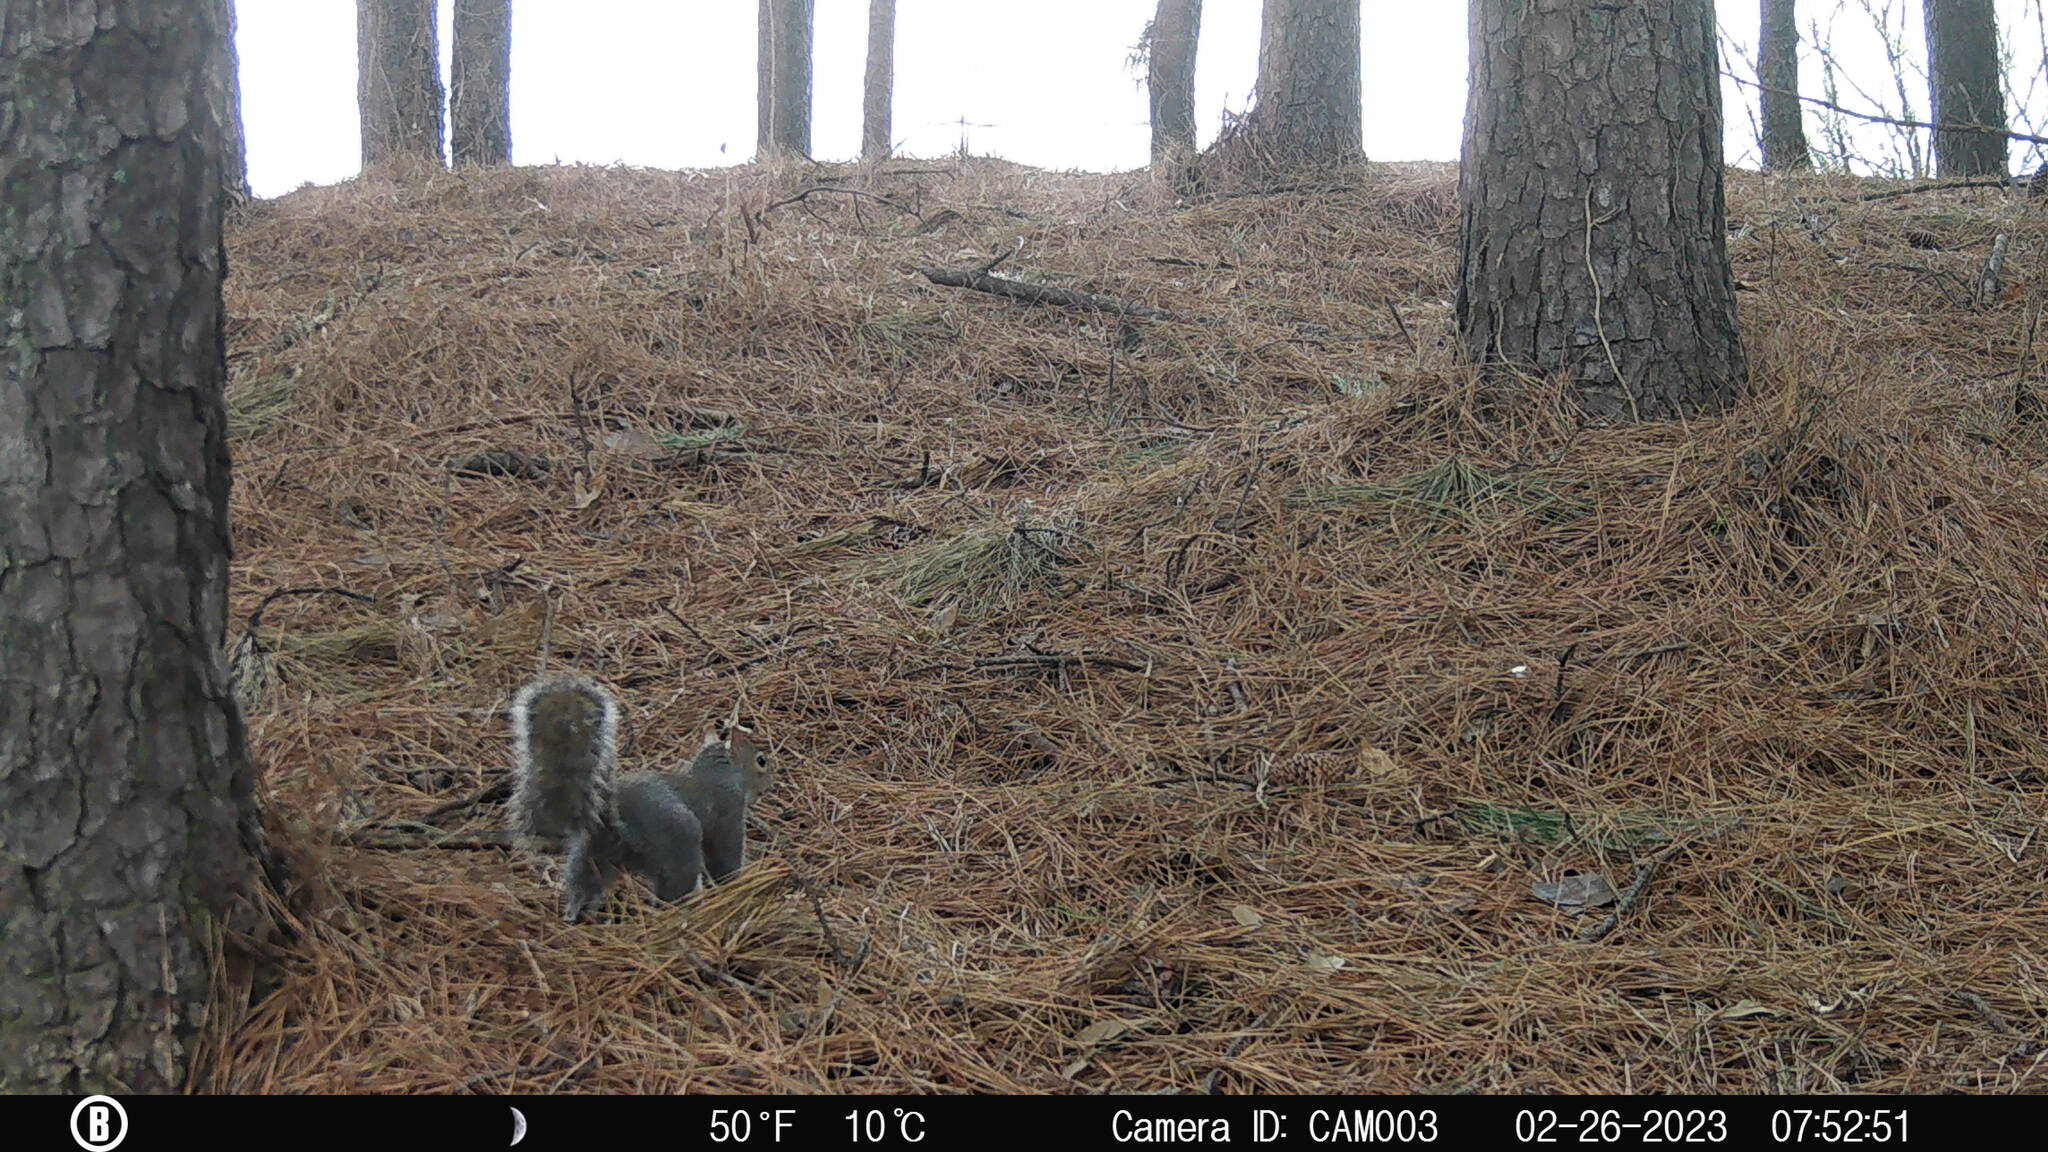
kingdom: Animalia
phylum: Chordata
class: Mammalia
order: Rodentia
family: Sciuridae
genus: Sciurus
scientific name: Sciurus carolinensis
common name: Eastern gray squirrel
